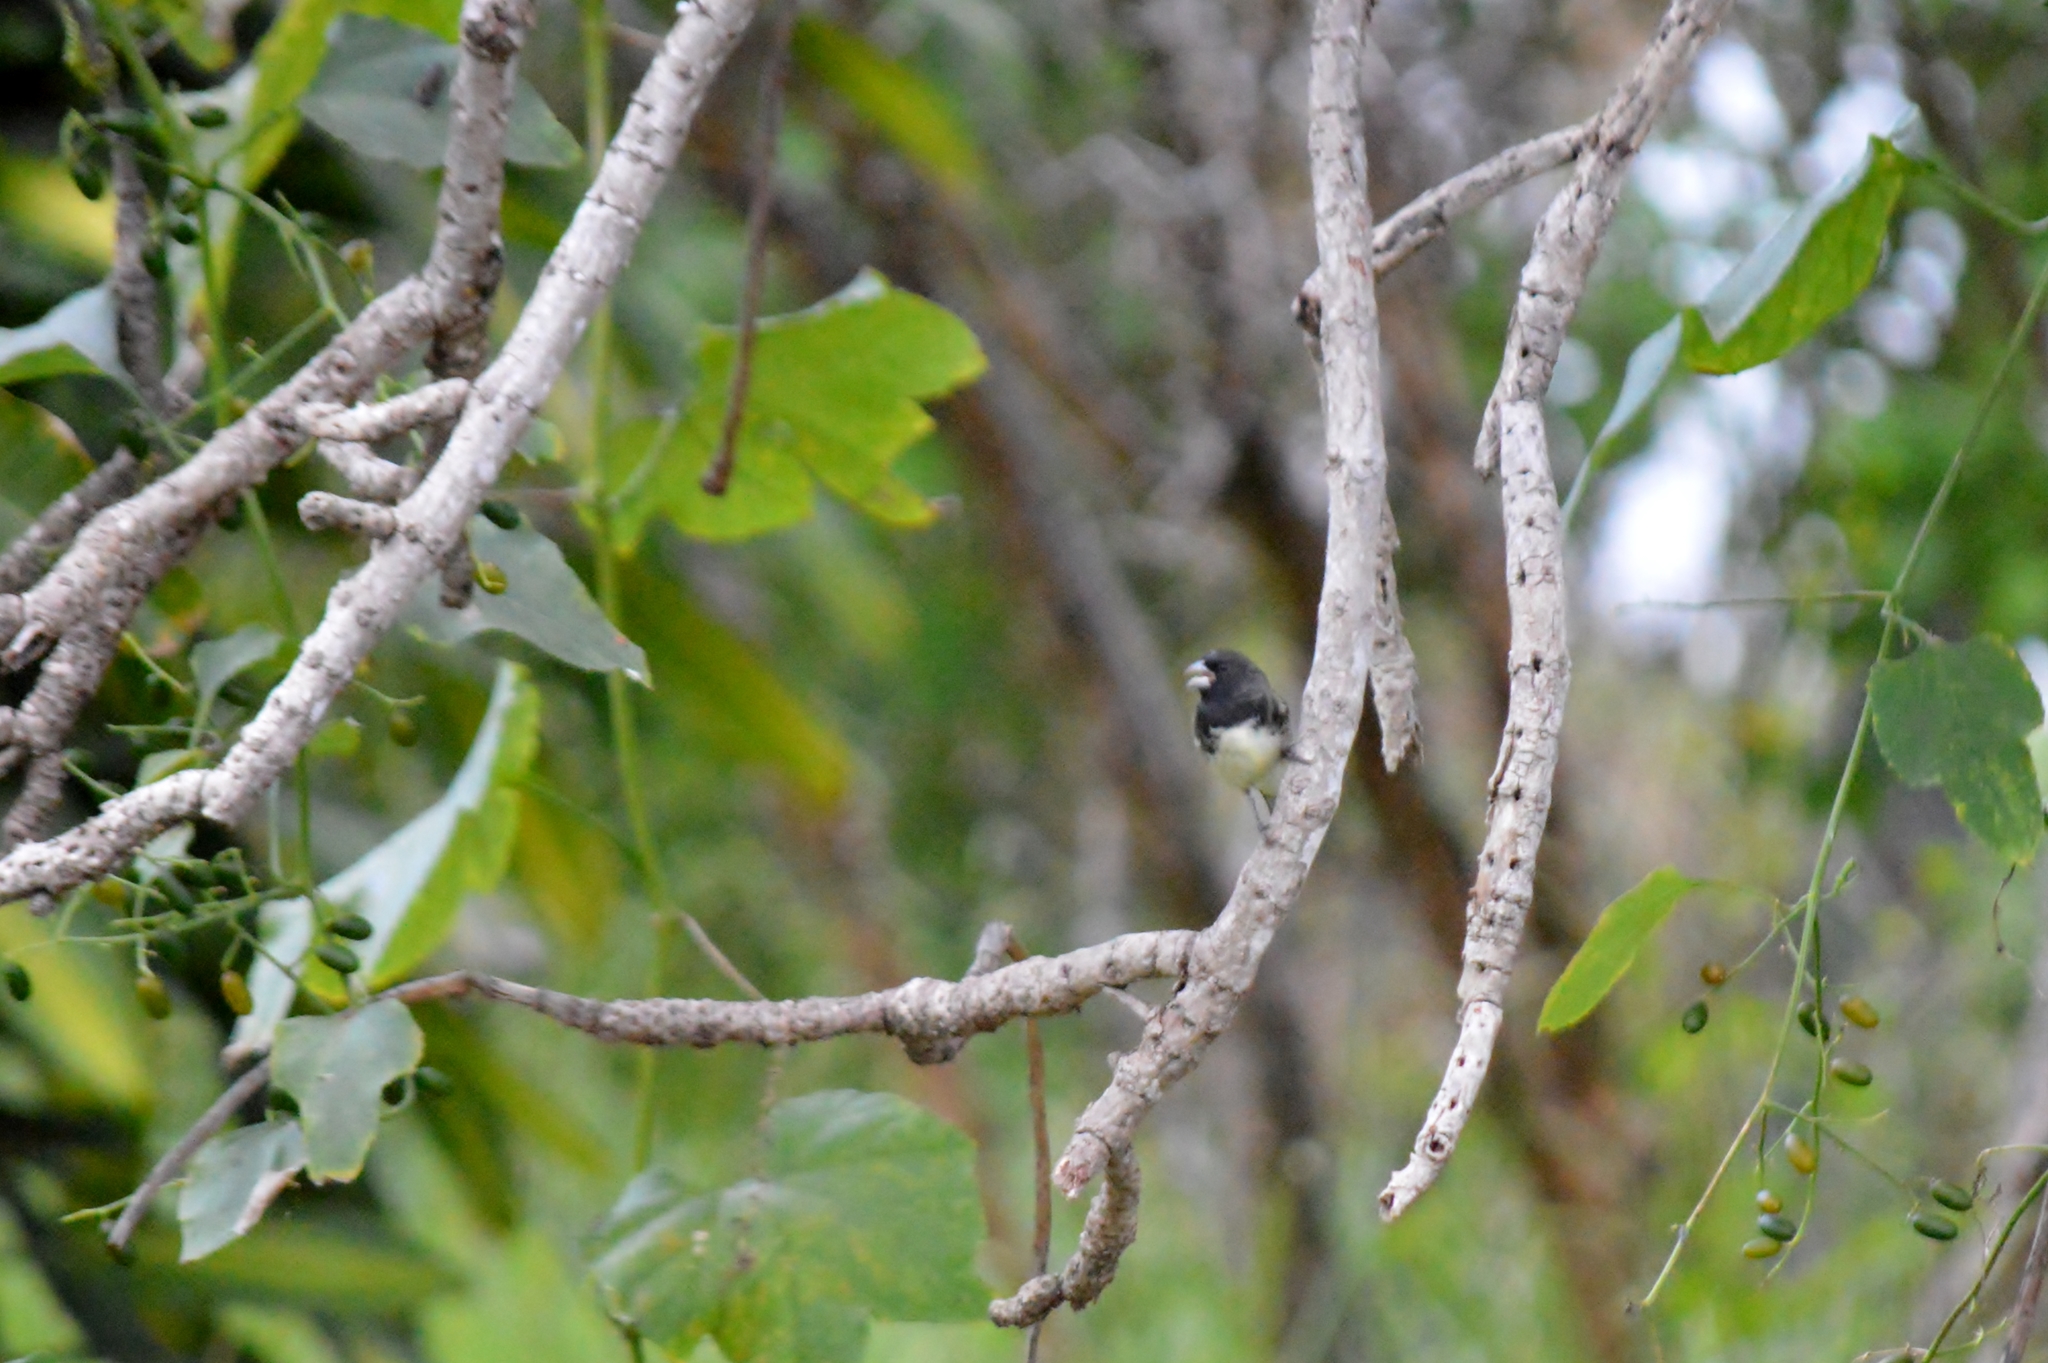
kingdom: Animalia
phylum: Chordata
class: Aves
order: Passeriformes
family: Thraupidae
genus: Sporophila
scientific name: Sporophila nigricollis
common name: Yellow-bellied seedeater
